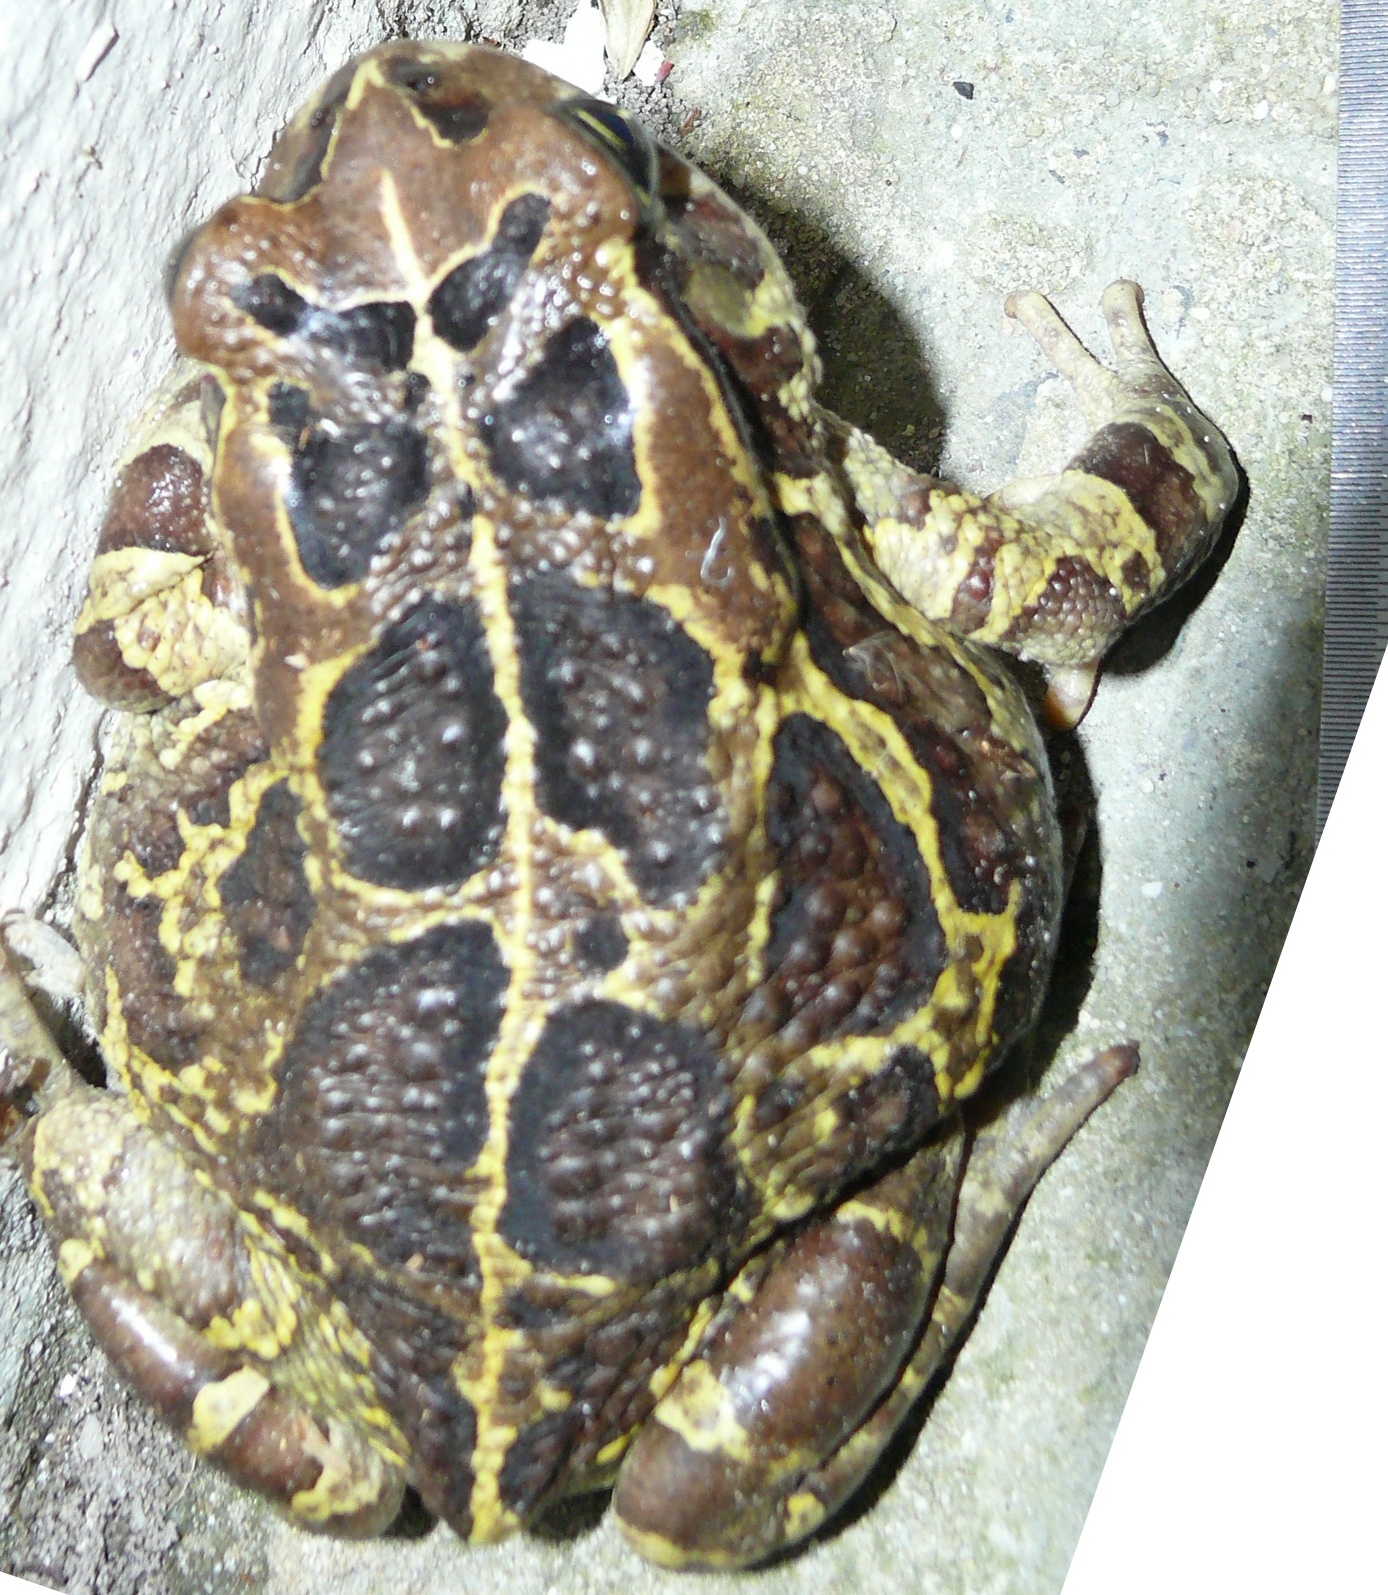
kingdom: Animalia
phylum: Chordata
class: Amphibia
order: Anura
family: Bufonidae
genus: Sclerophrys
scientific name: Sclerophrys pantherina
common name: Panther toad
